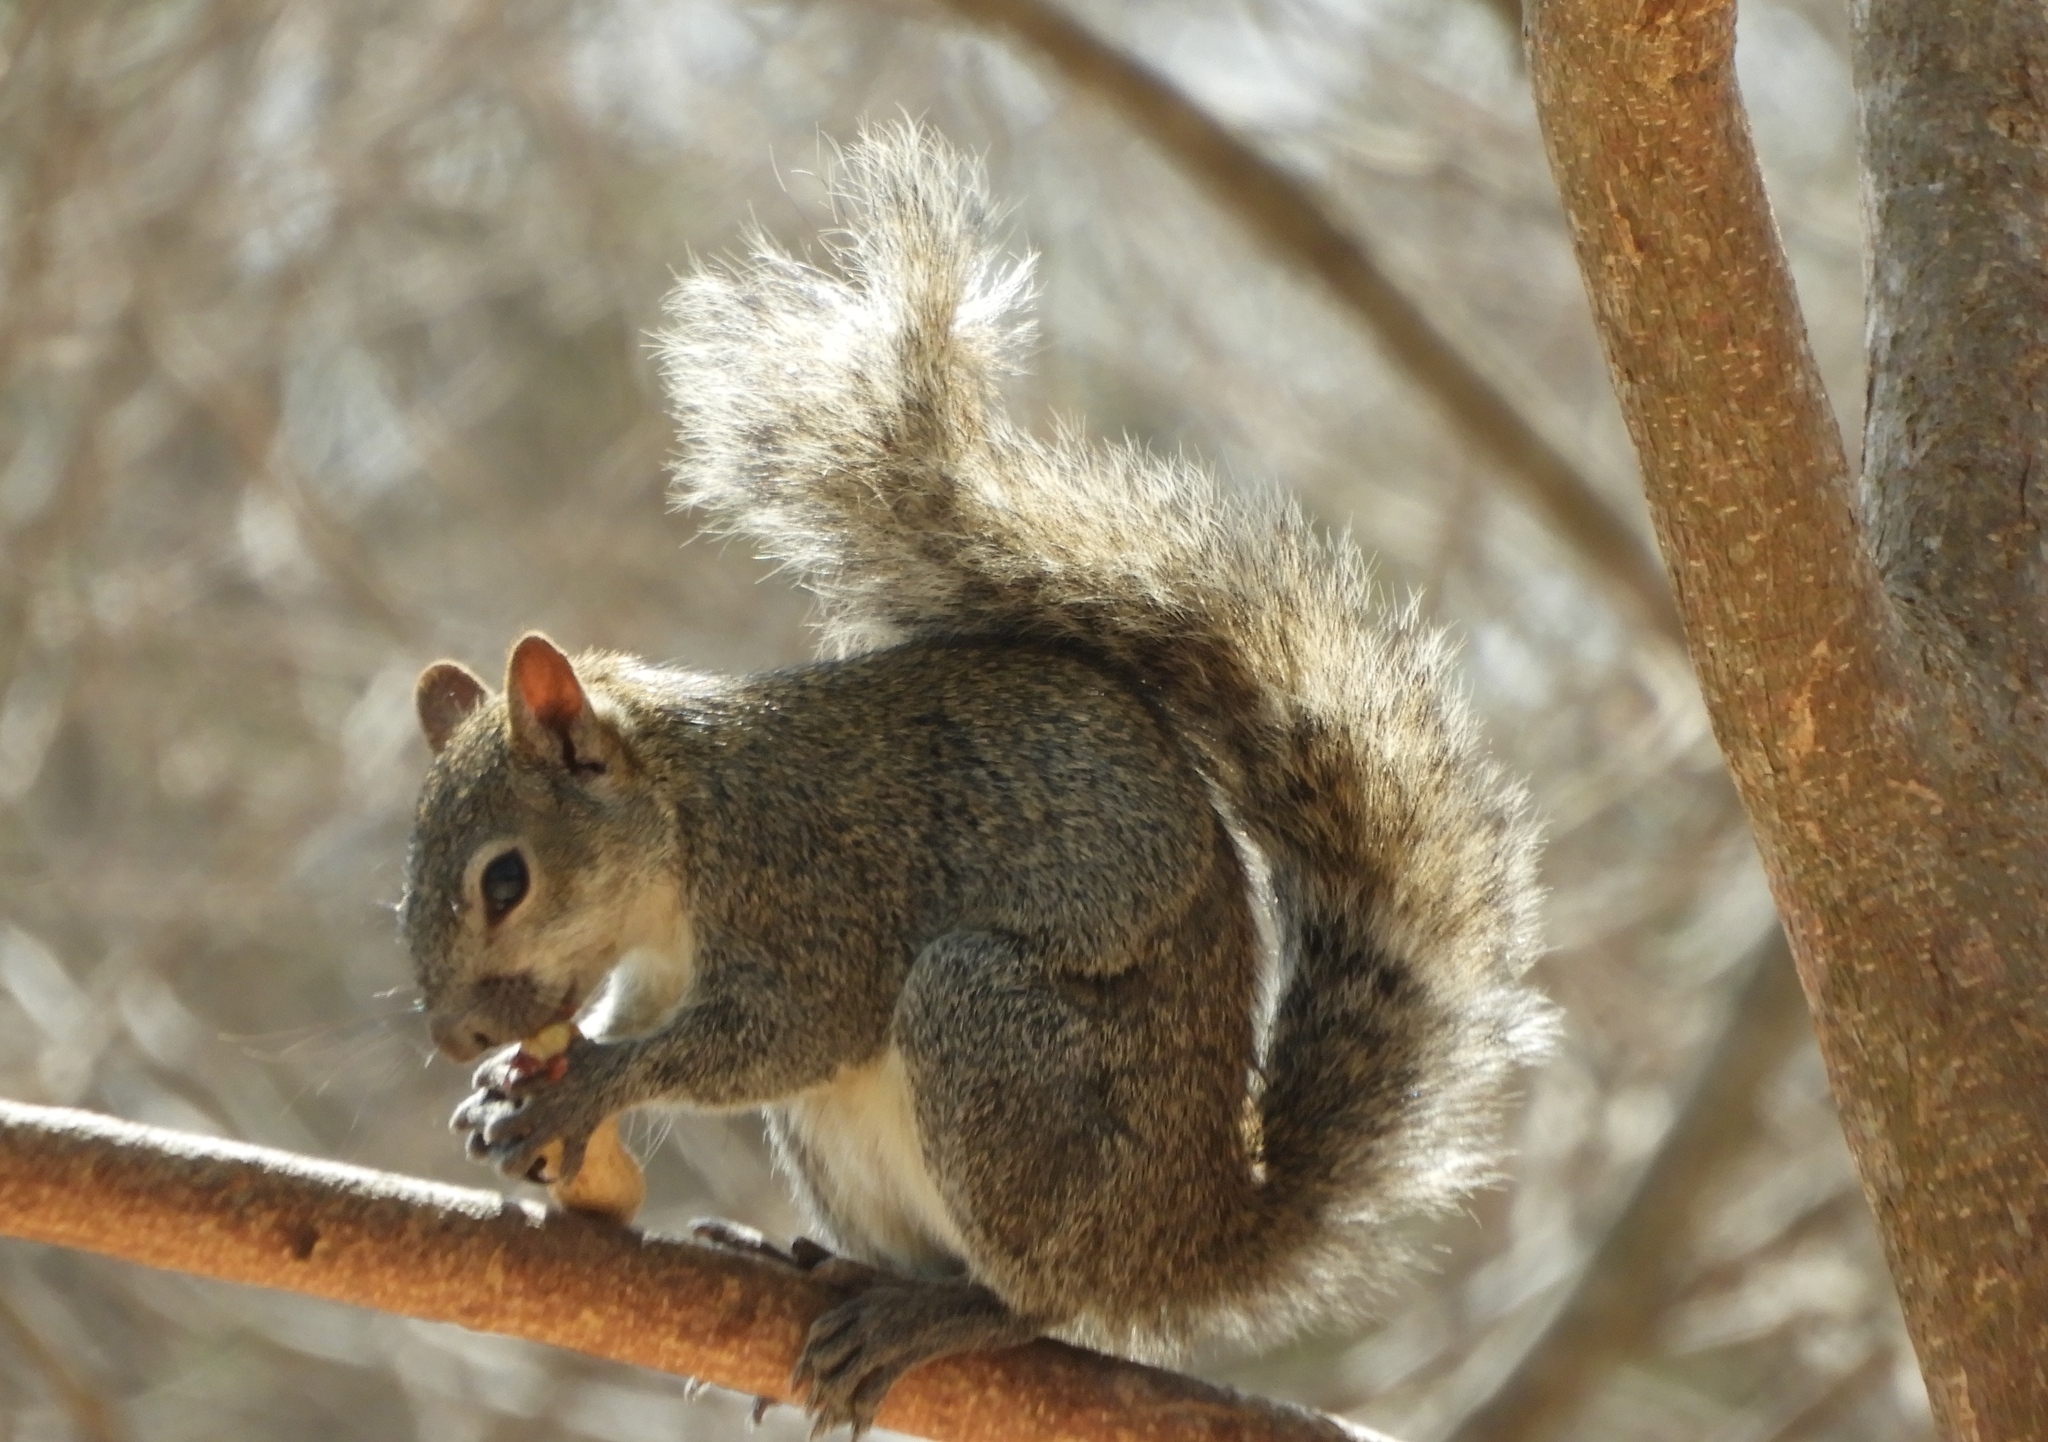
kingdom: Animalia
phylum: Chordata
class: Mammalia
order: Rodentia
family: Sciuridae
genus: Sciurus
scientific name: Sciurus colliaei
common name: Collie's squirrel
